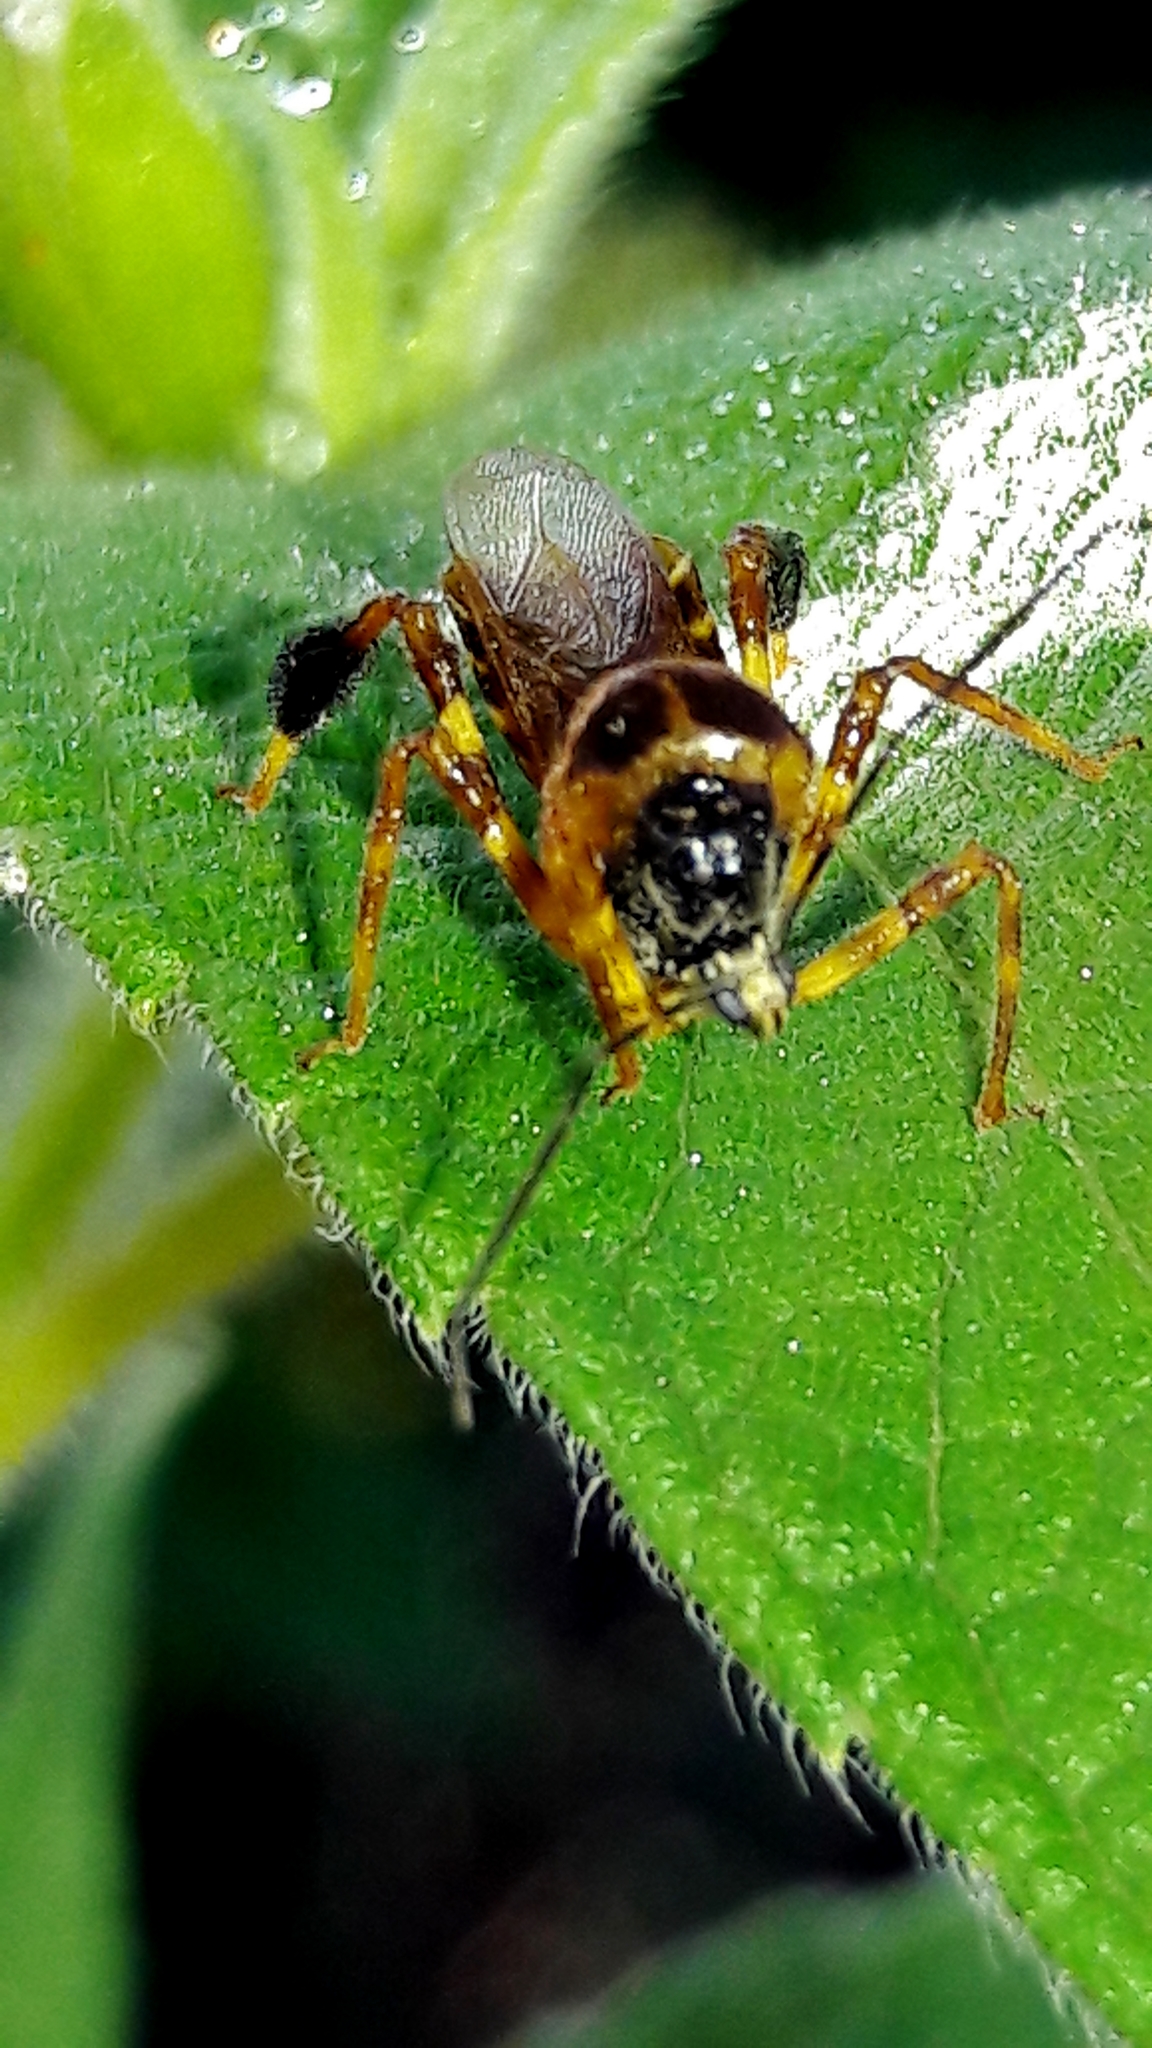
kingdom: Animalia
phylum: Arthropoda
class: Insecta
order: Hemiptera
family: Reduviidae
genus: Notocyrtus
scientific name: Notocyrtus dorsalis
